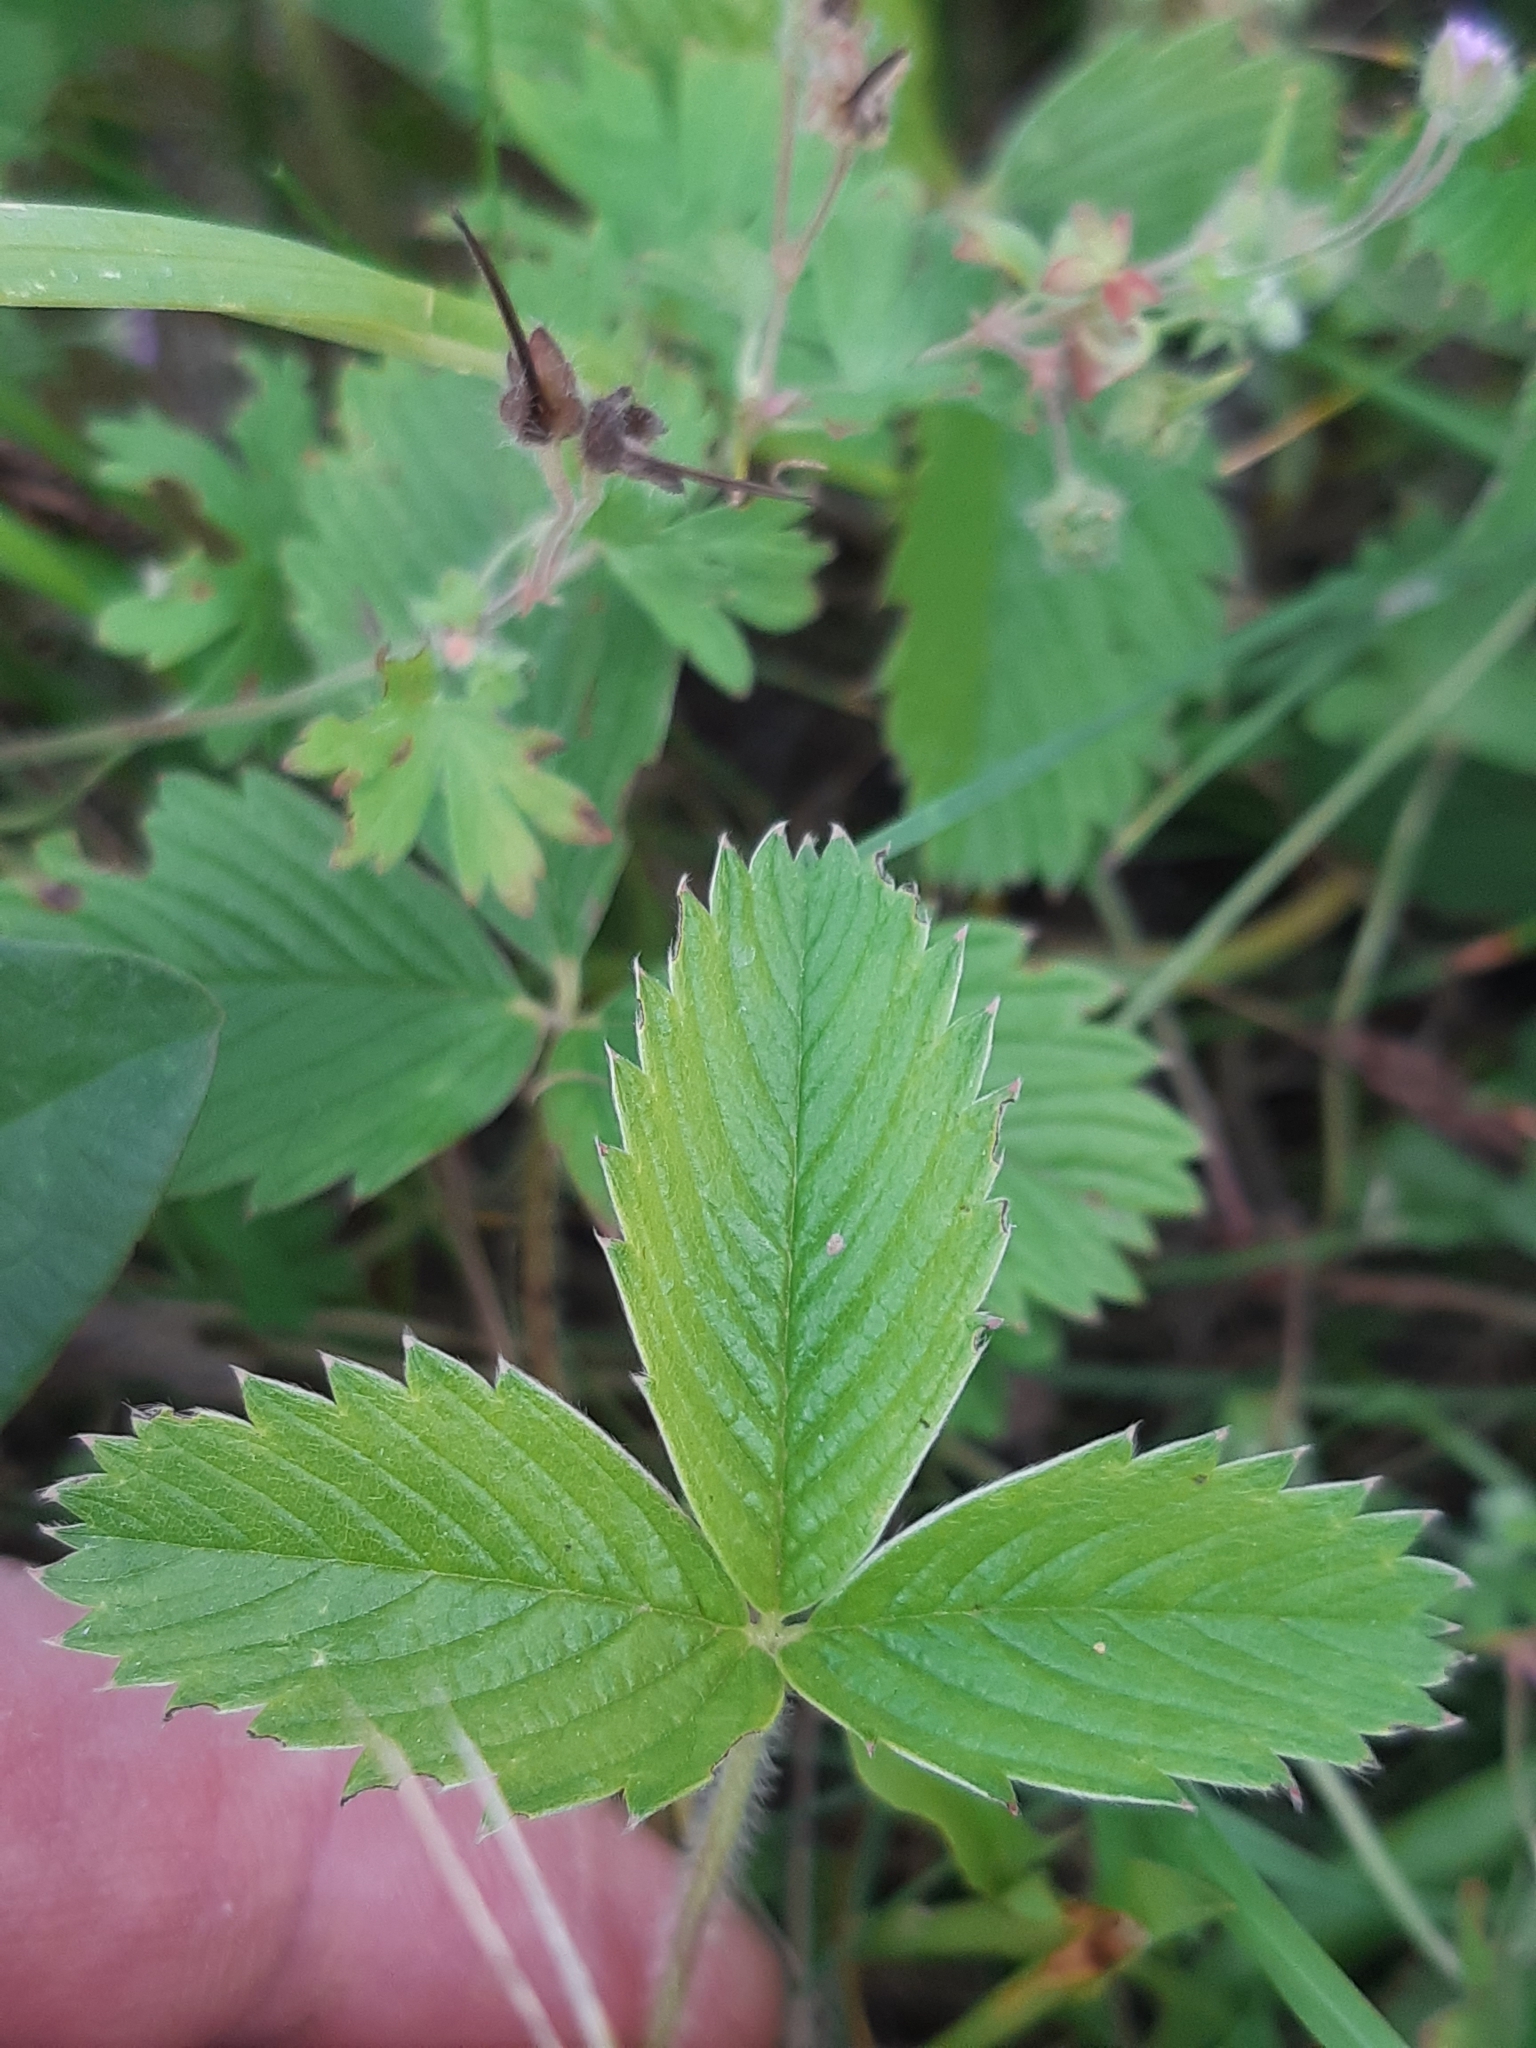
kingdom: Plantae
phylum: Tracheophyta
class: Magnoliopsida
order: Rosales
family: Rosaceae
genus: Fragaria
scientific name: Fragaria viridis
